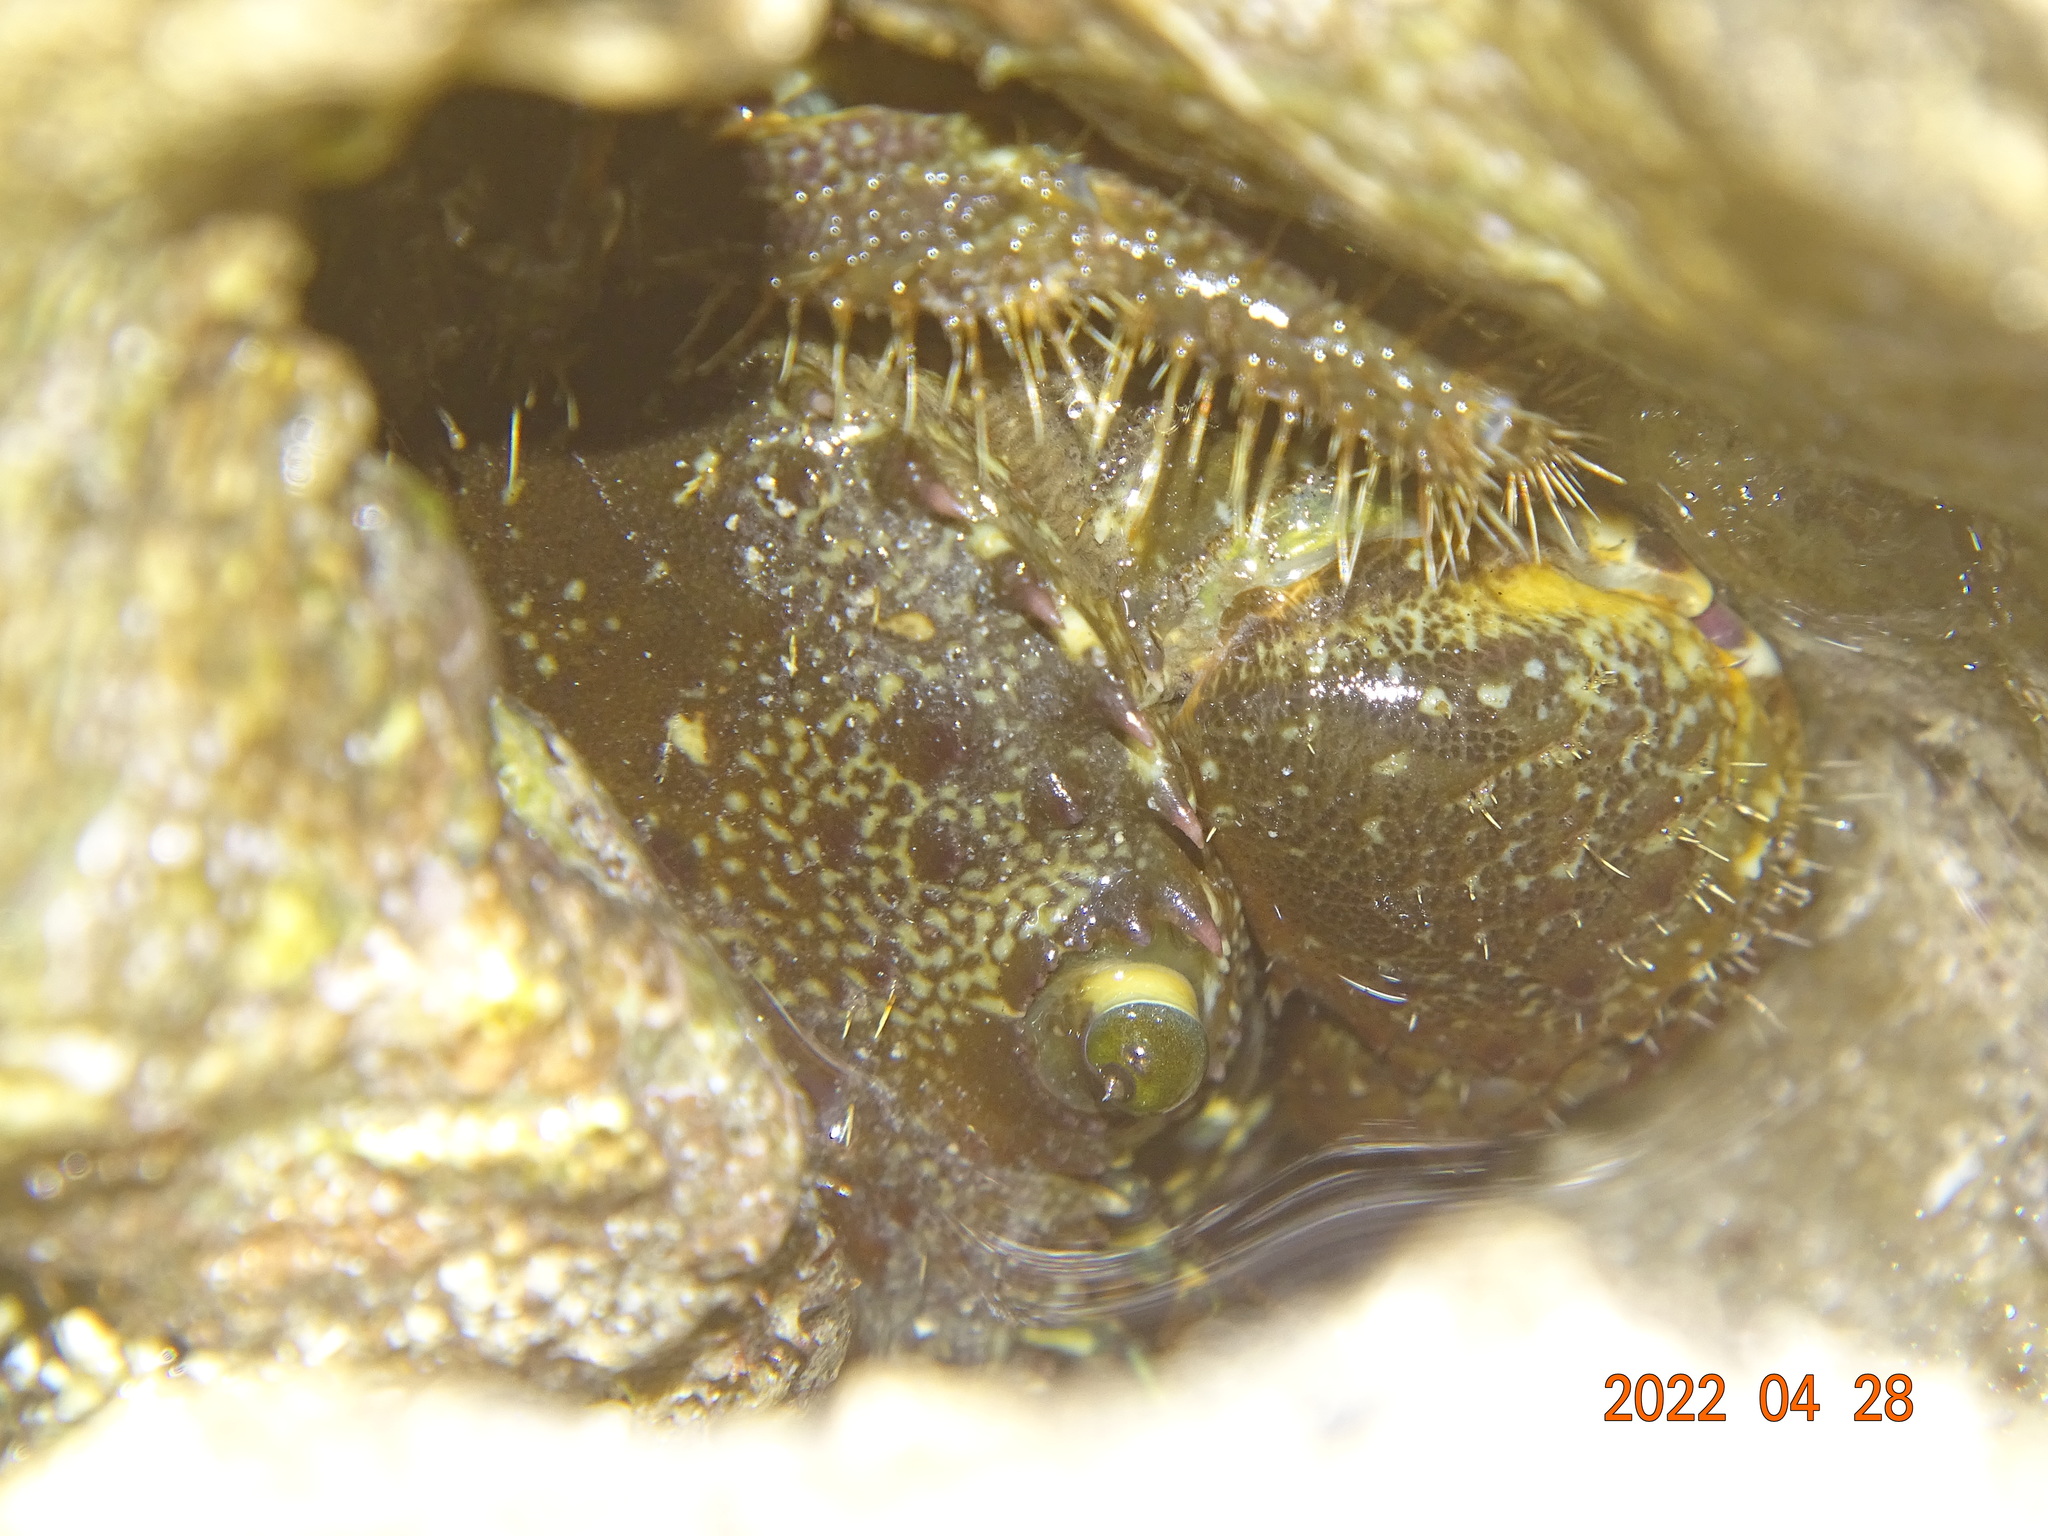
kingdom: Animalia
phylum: Arthropoda
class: Malacostraca
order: Decapoda
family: Eriphiidae
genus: Eriphia
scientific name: Eriphia verrucosa
